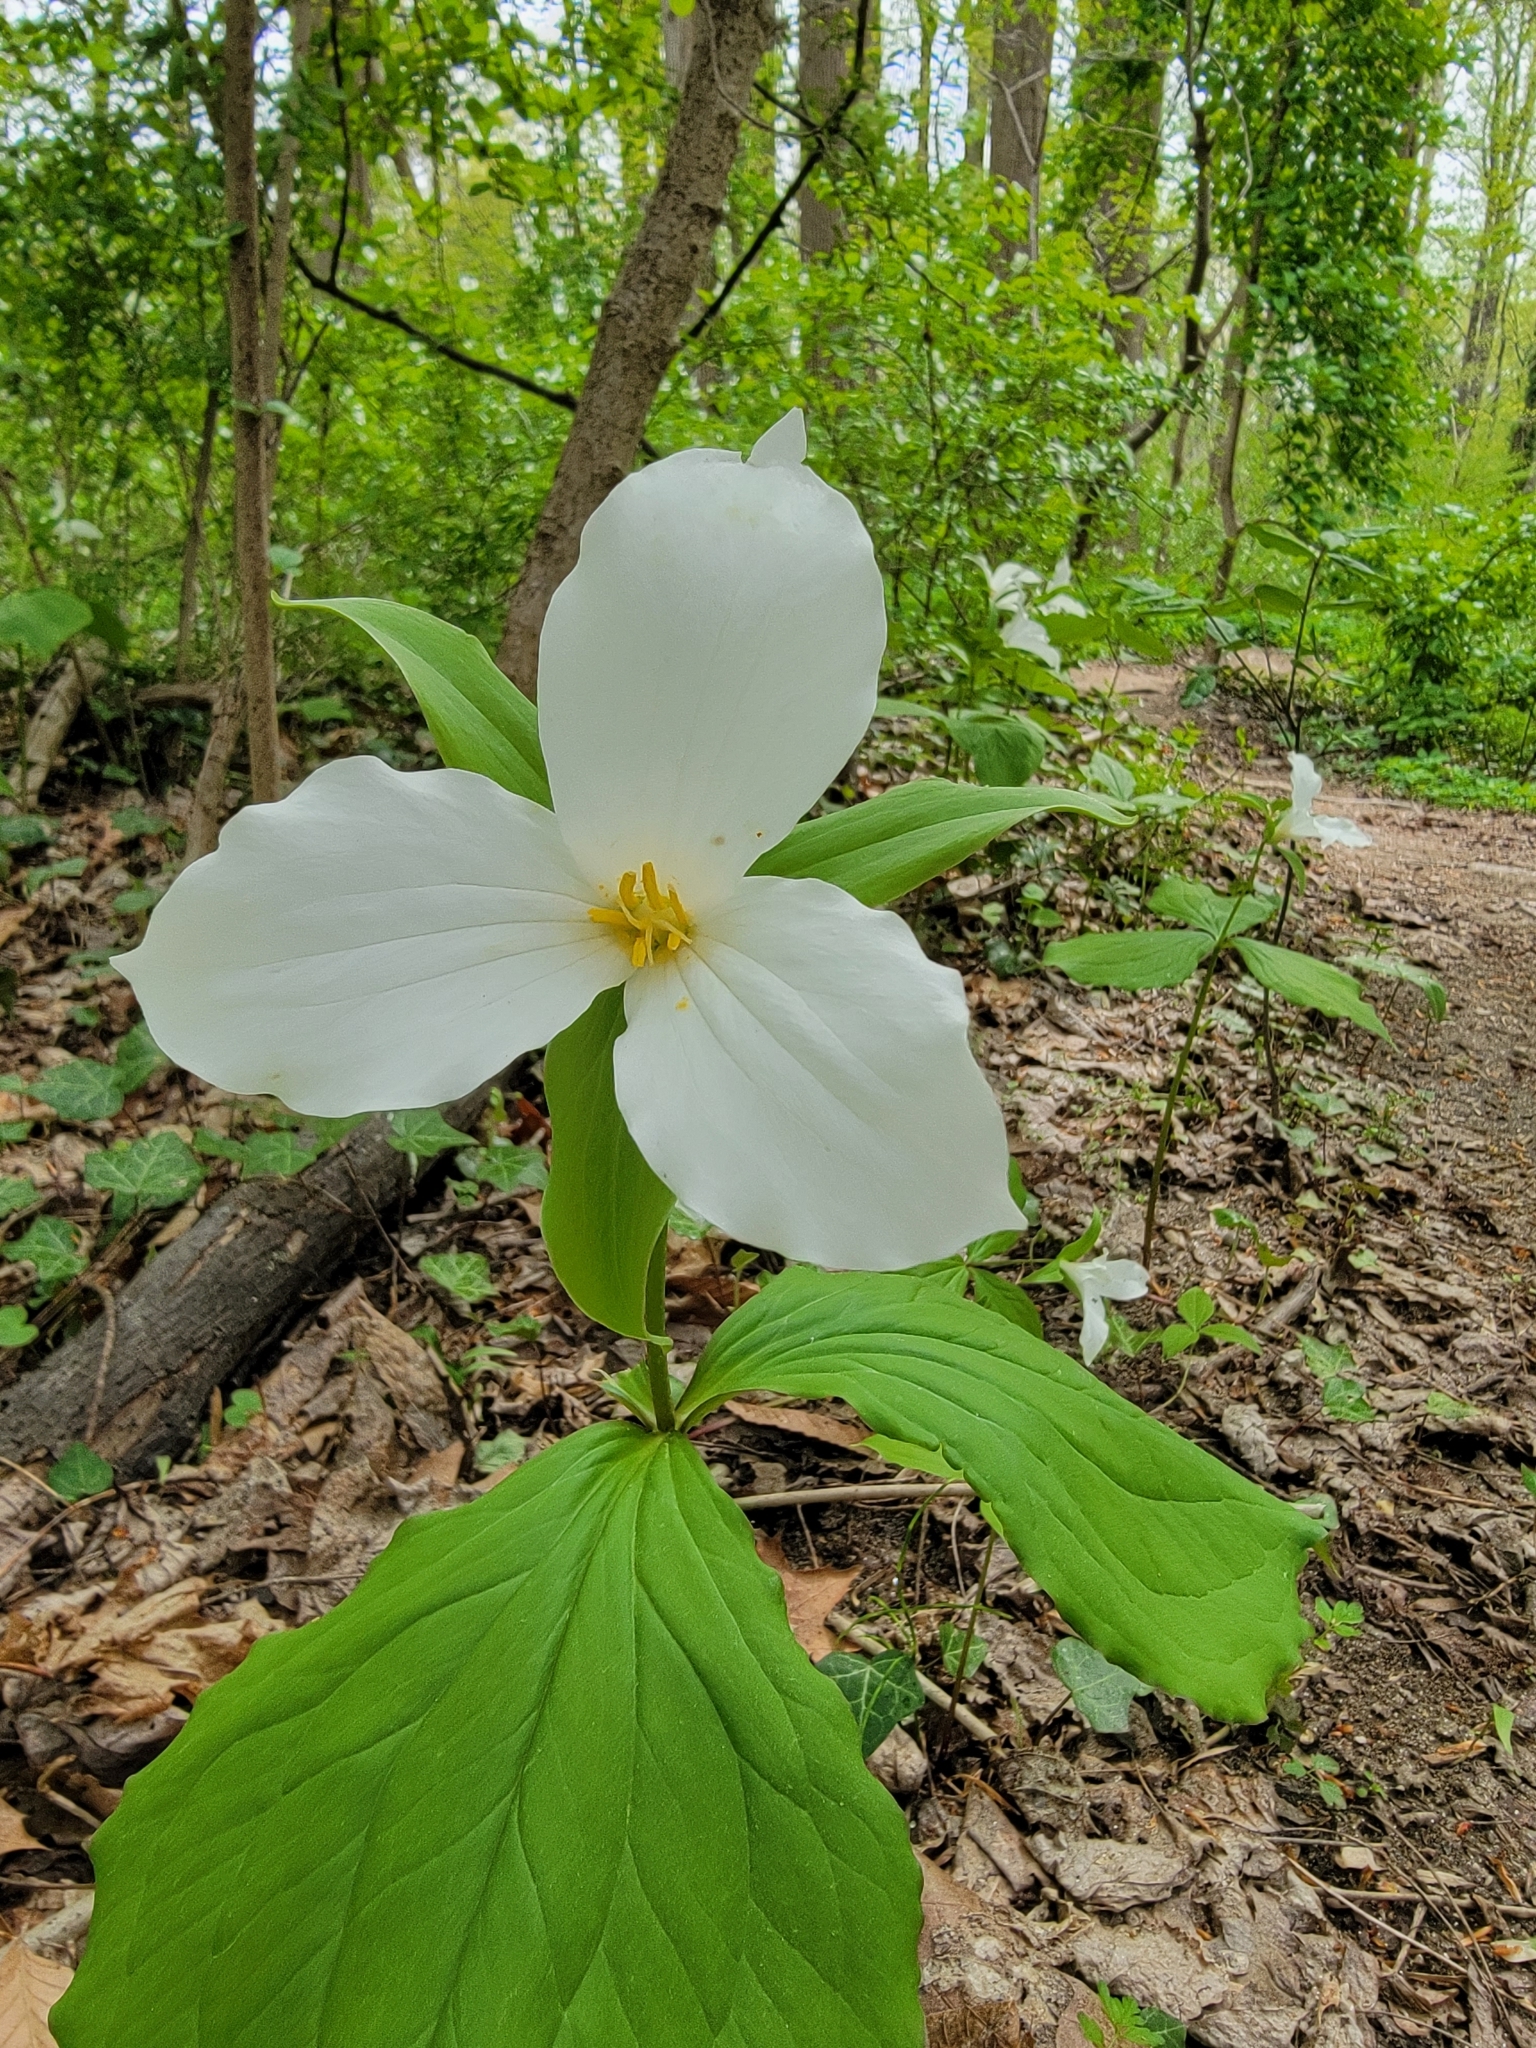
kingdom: Plantae
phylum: Tracheophyta
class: Liliopsida
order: Liliales
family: Melanthiaceae
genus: Trillium
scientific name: Trillium grandiflorum
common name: Great white trillium
